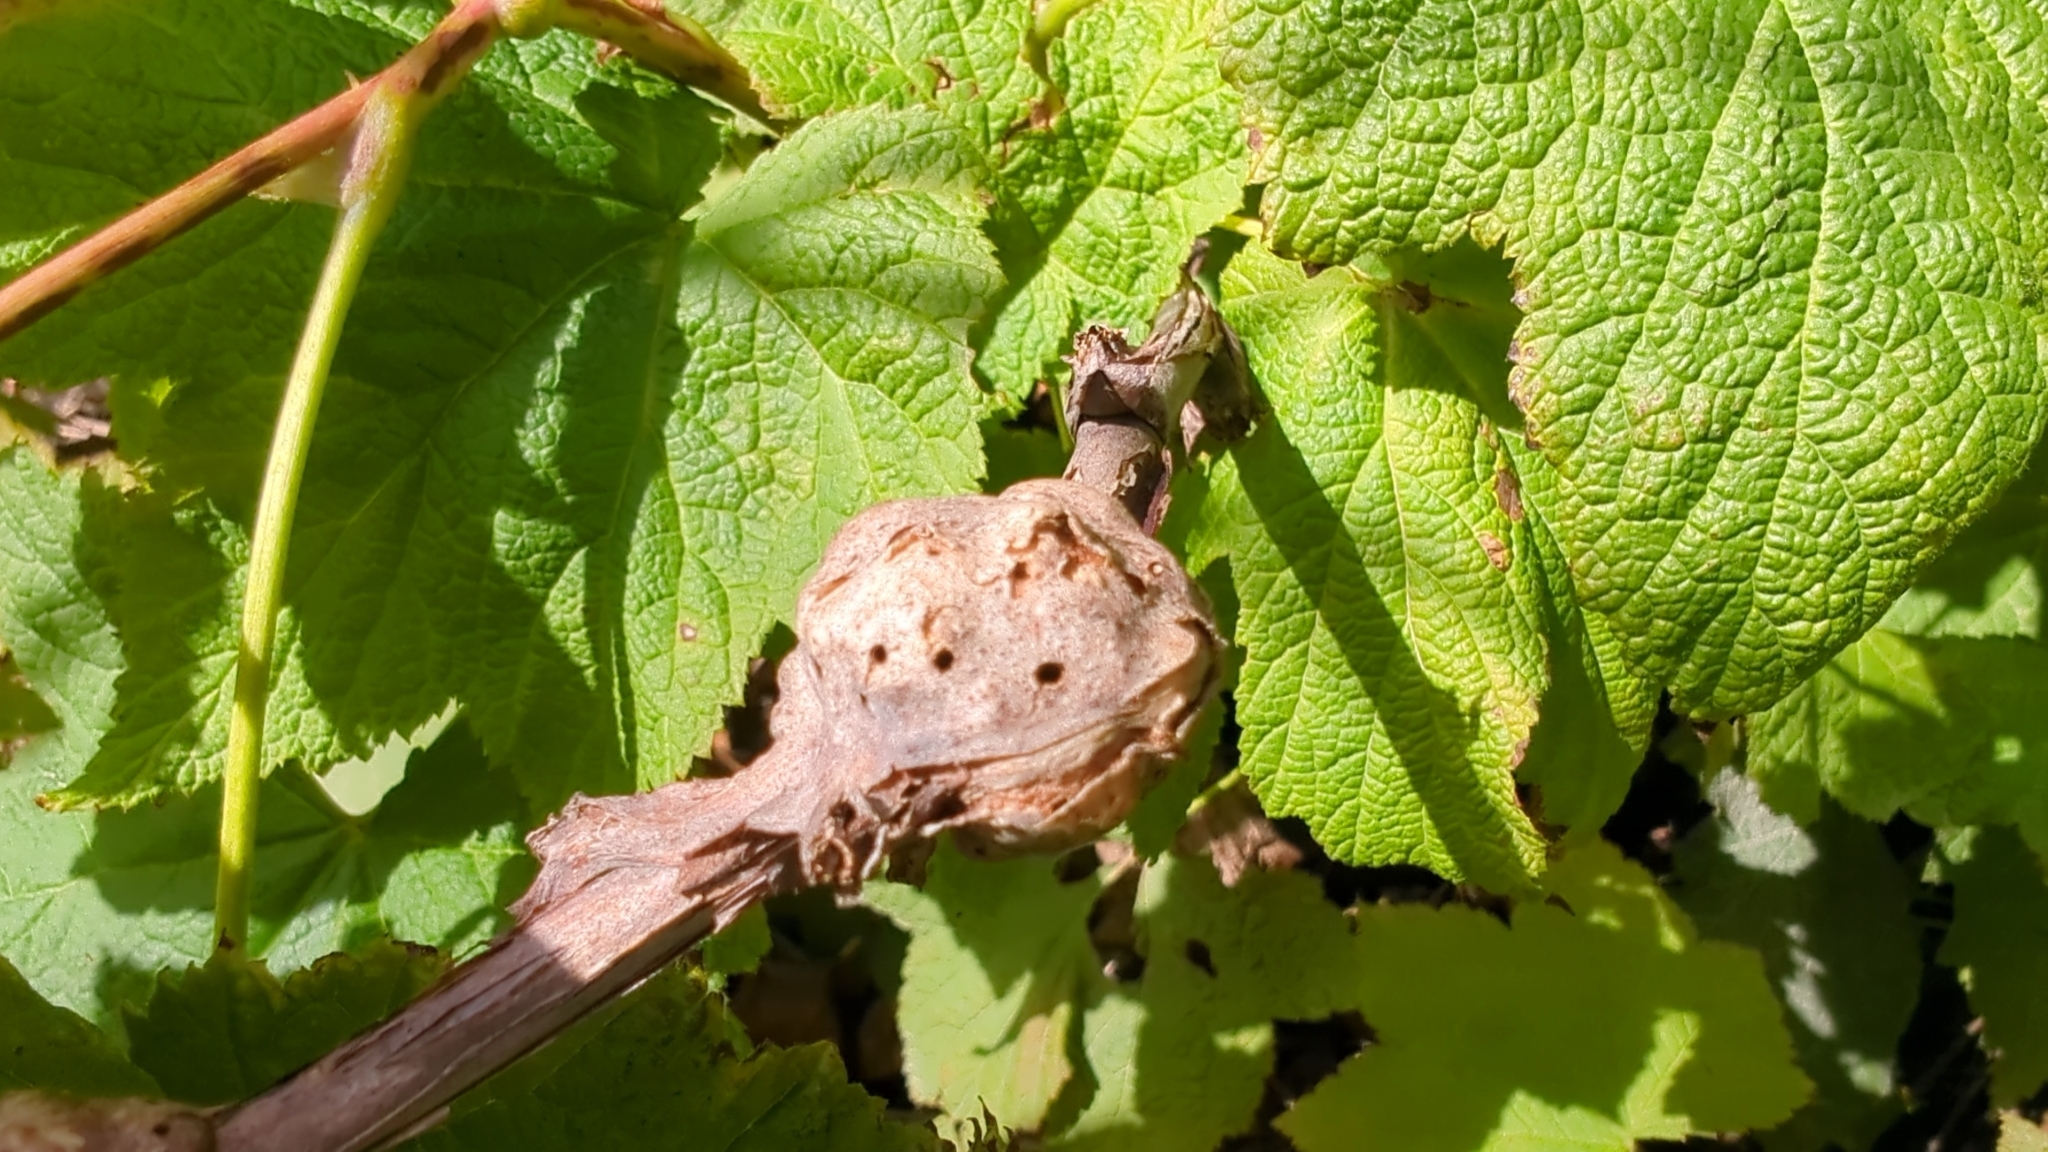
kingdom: Animalia
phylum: Arthropoda
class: Insecta
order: Hymenoptera
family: Cynipidae
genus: Diastrophus
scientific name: Diastrophus
